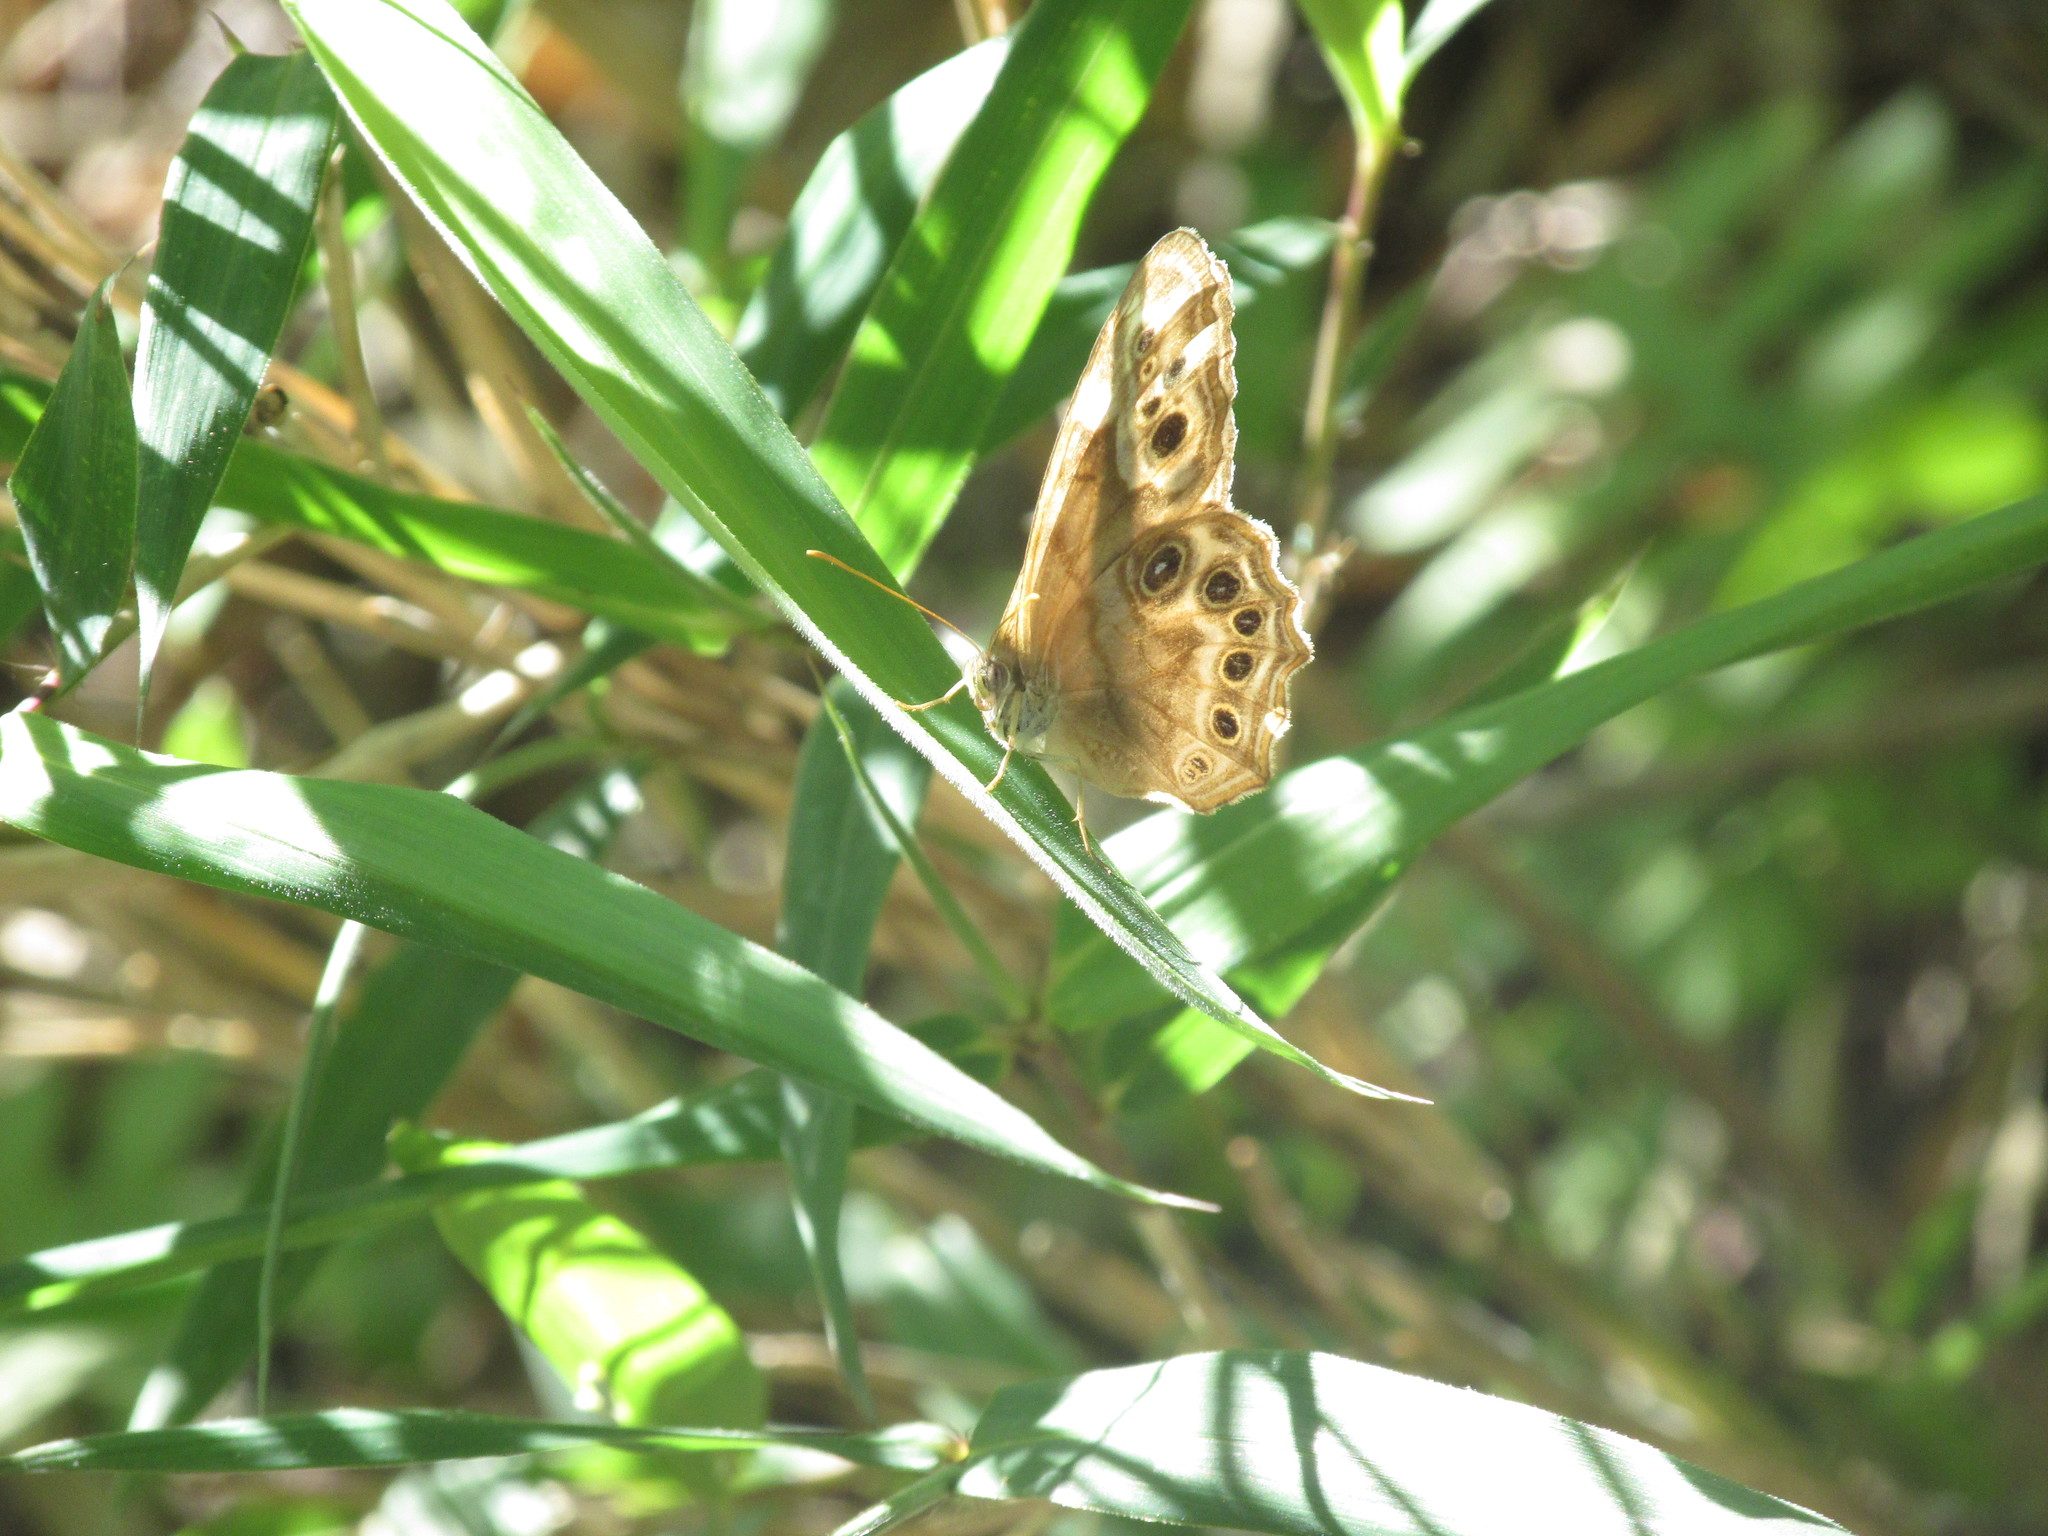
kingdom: Animalia
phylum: Arthropoda
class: Insecta
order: Lepidoptera
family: Nymphalidae
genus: Enodia
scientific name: Enodia portlandia
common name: Southern pearly-eye
